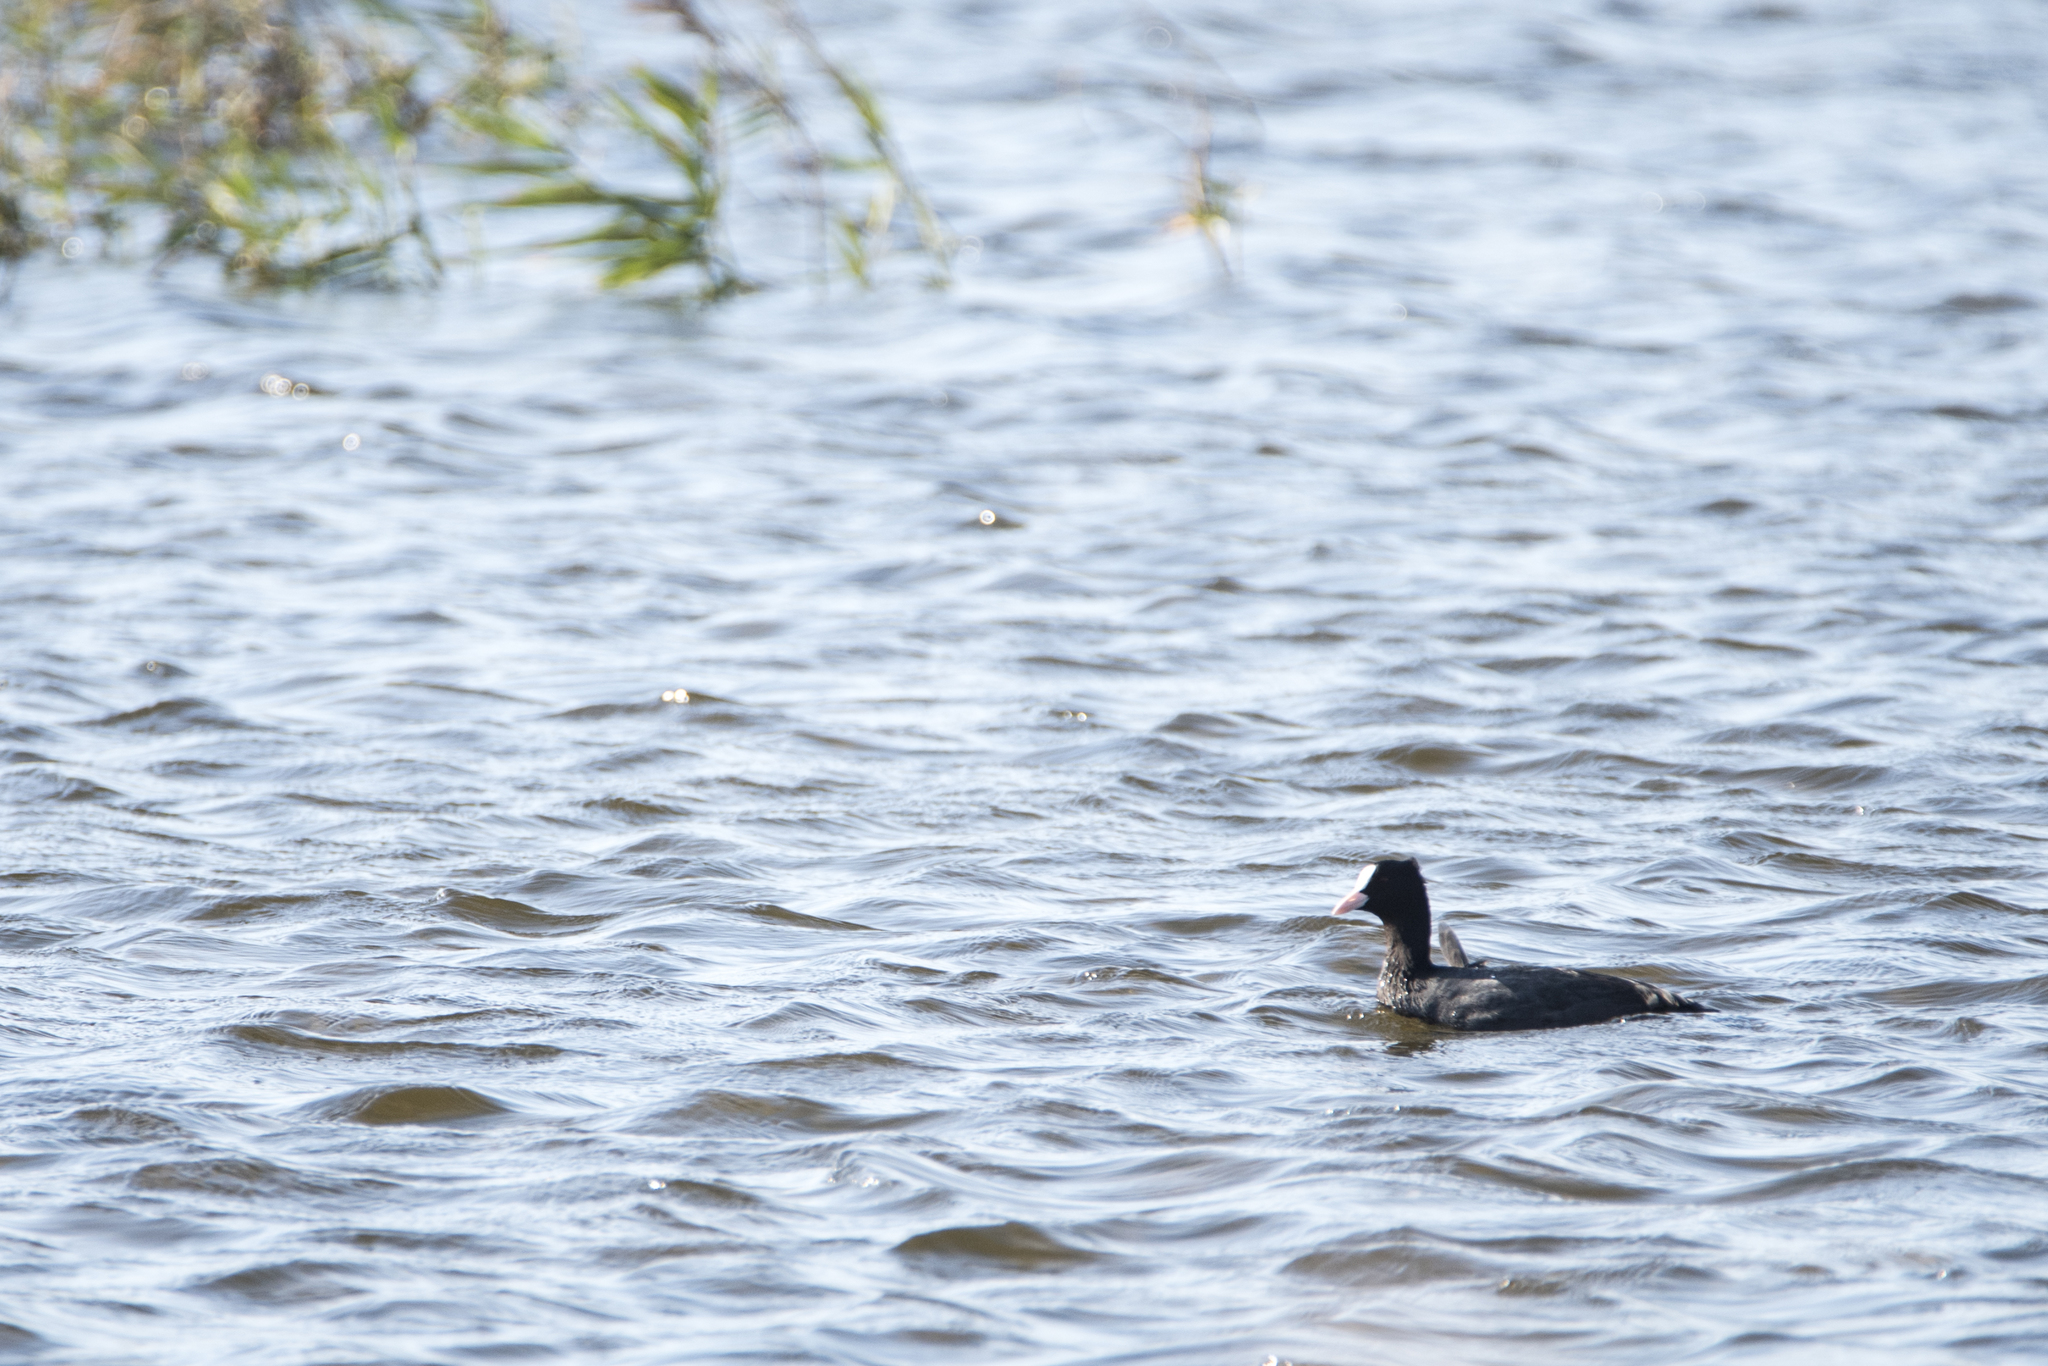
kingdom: Animalia
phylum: Chordata
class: Aves
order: Gruiformes
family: Rallidae
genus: Fulica
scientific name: Fulica atra
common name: Eurasian coot
